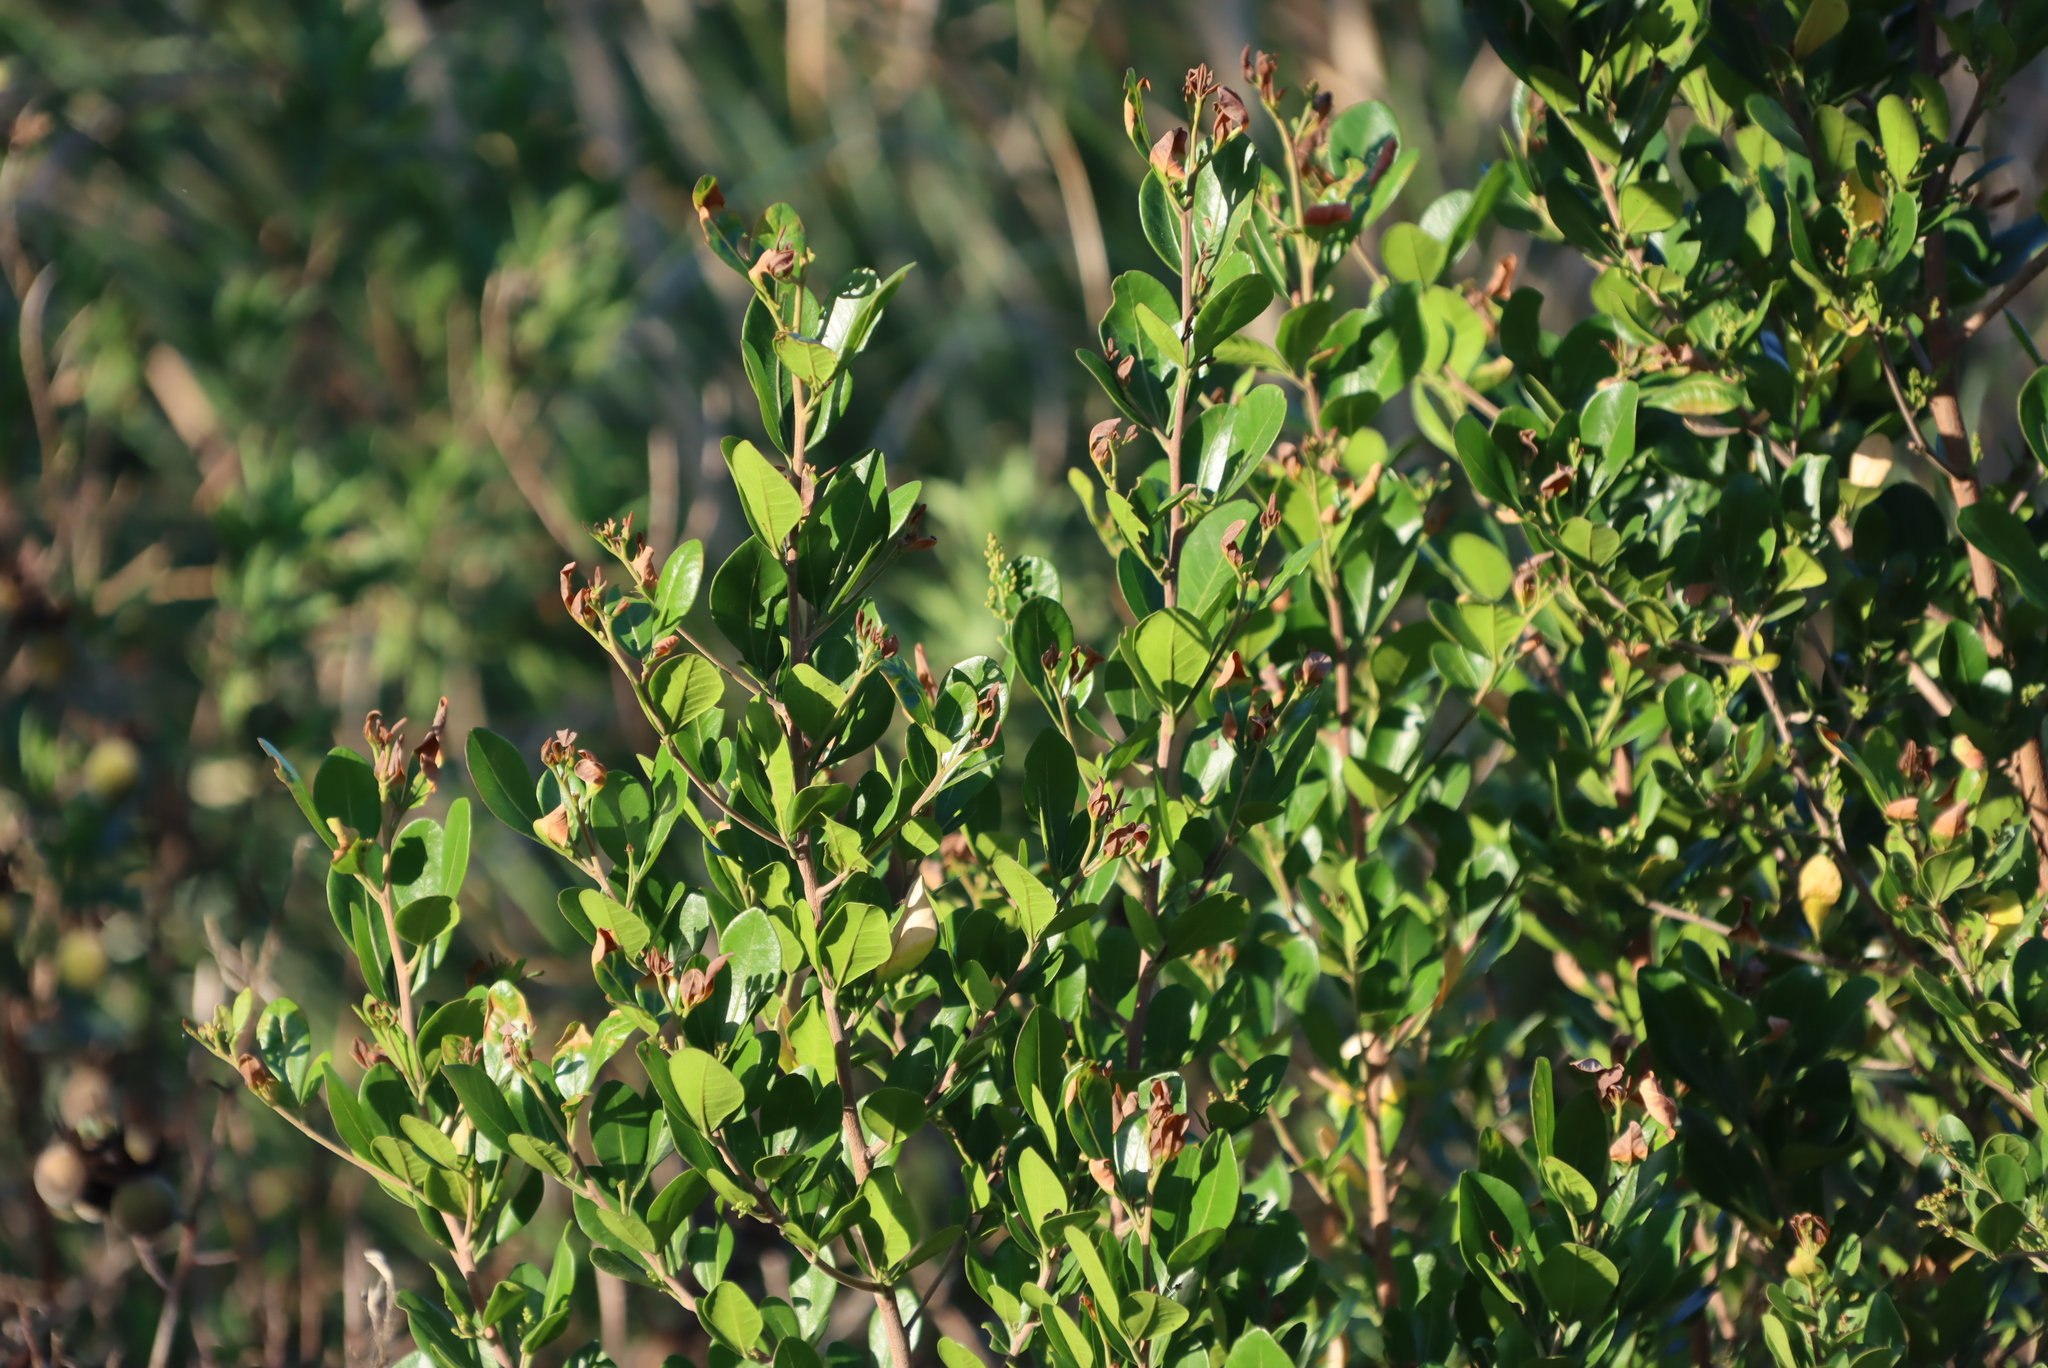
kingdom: Plantae
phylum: Tracheophyta
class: Magnoliopsida
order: Sapindales
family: Anacardiaceae
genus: Searsia
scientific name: Searsia lucida
